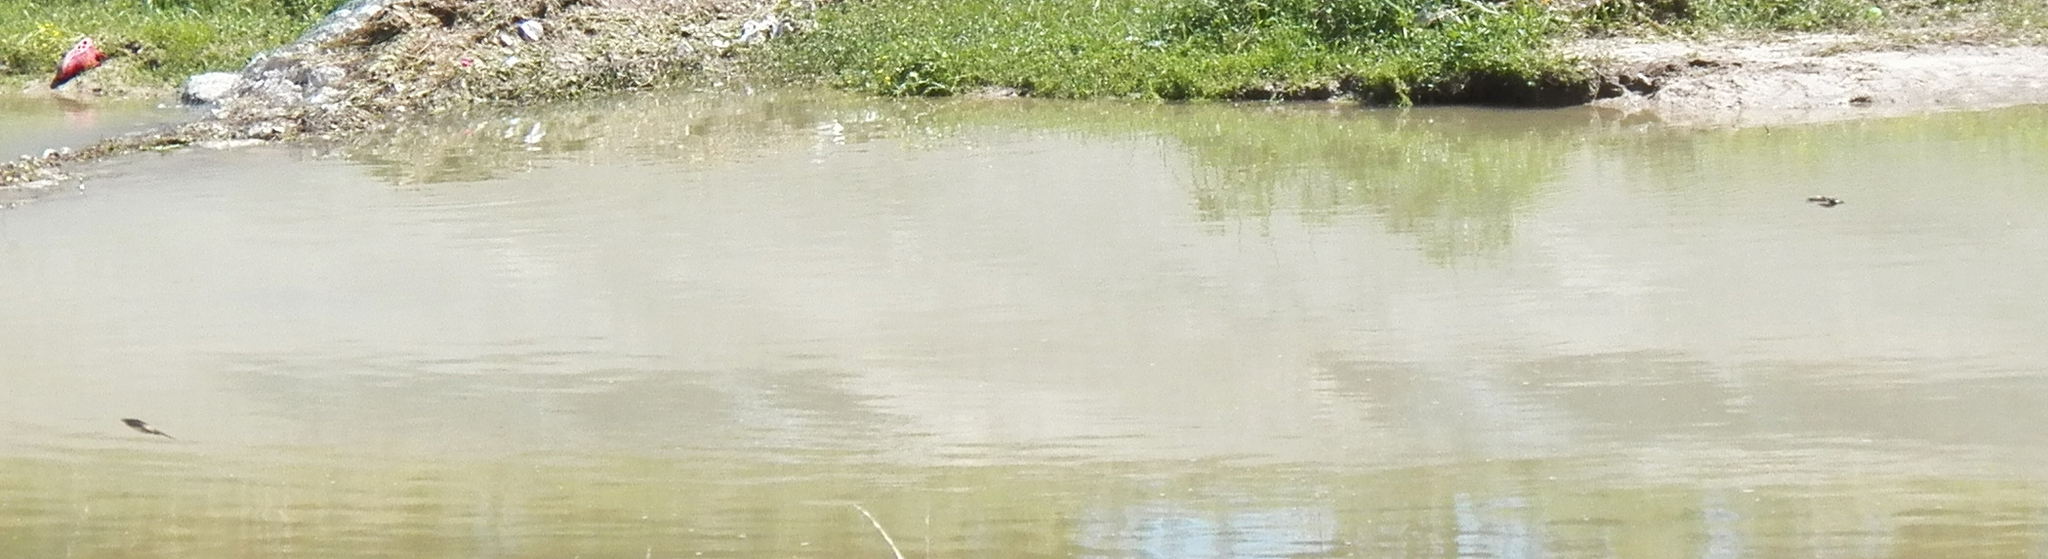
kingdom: Animalia
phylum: Chordata
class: Aves
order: Passeriformes
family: Hirundinidae
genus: Petrochelidon
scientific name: Petrochelidon pyrrhonota
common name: American cliff swallow
